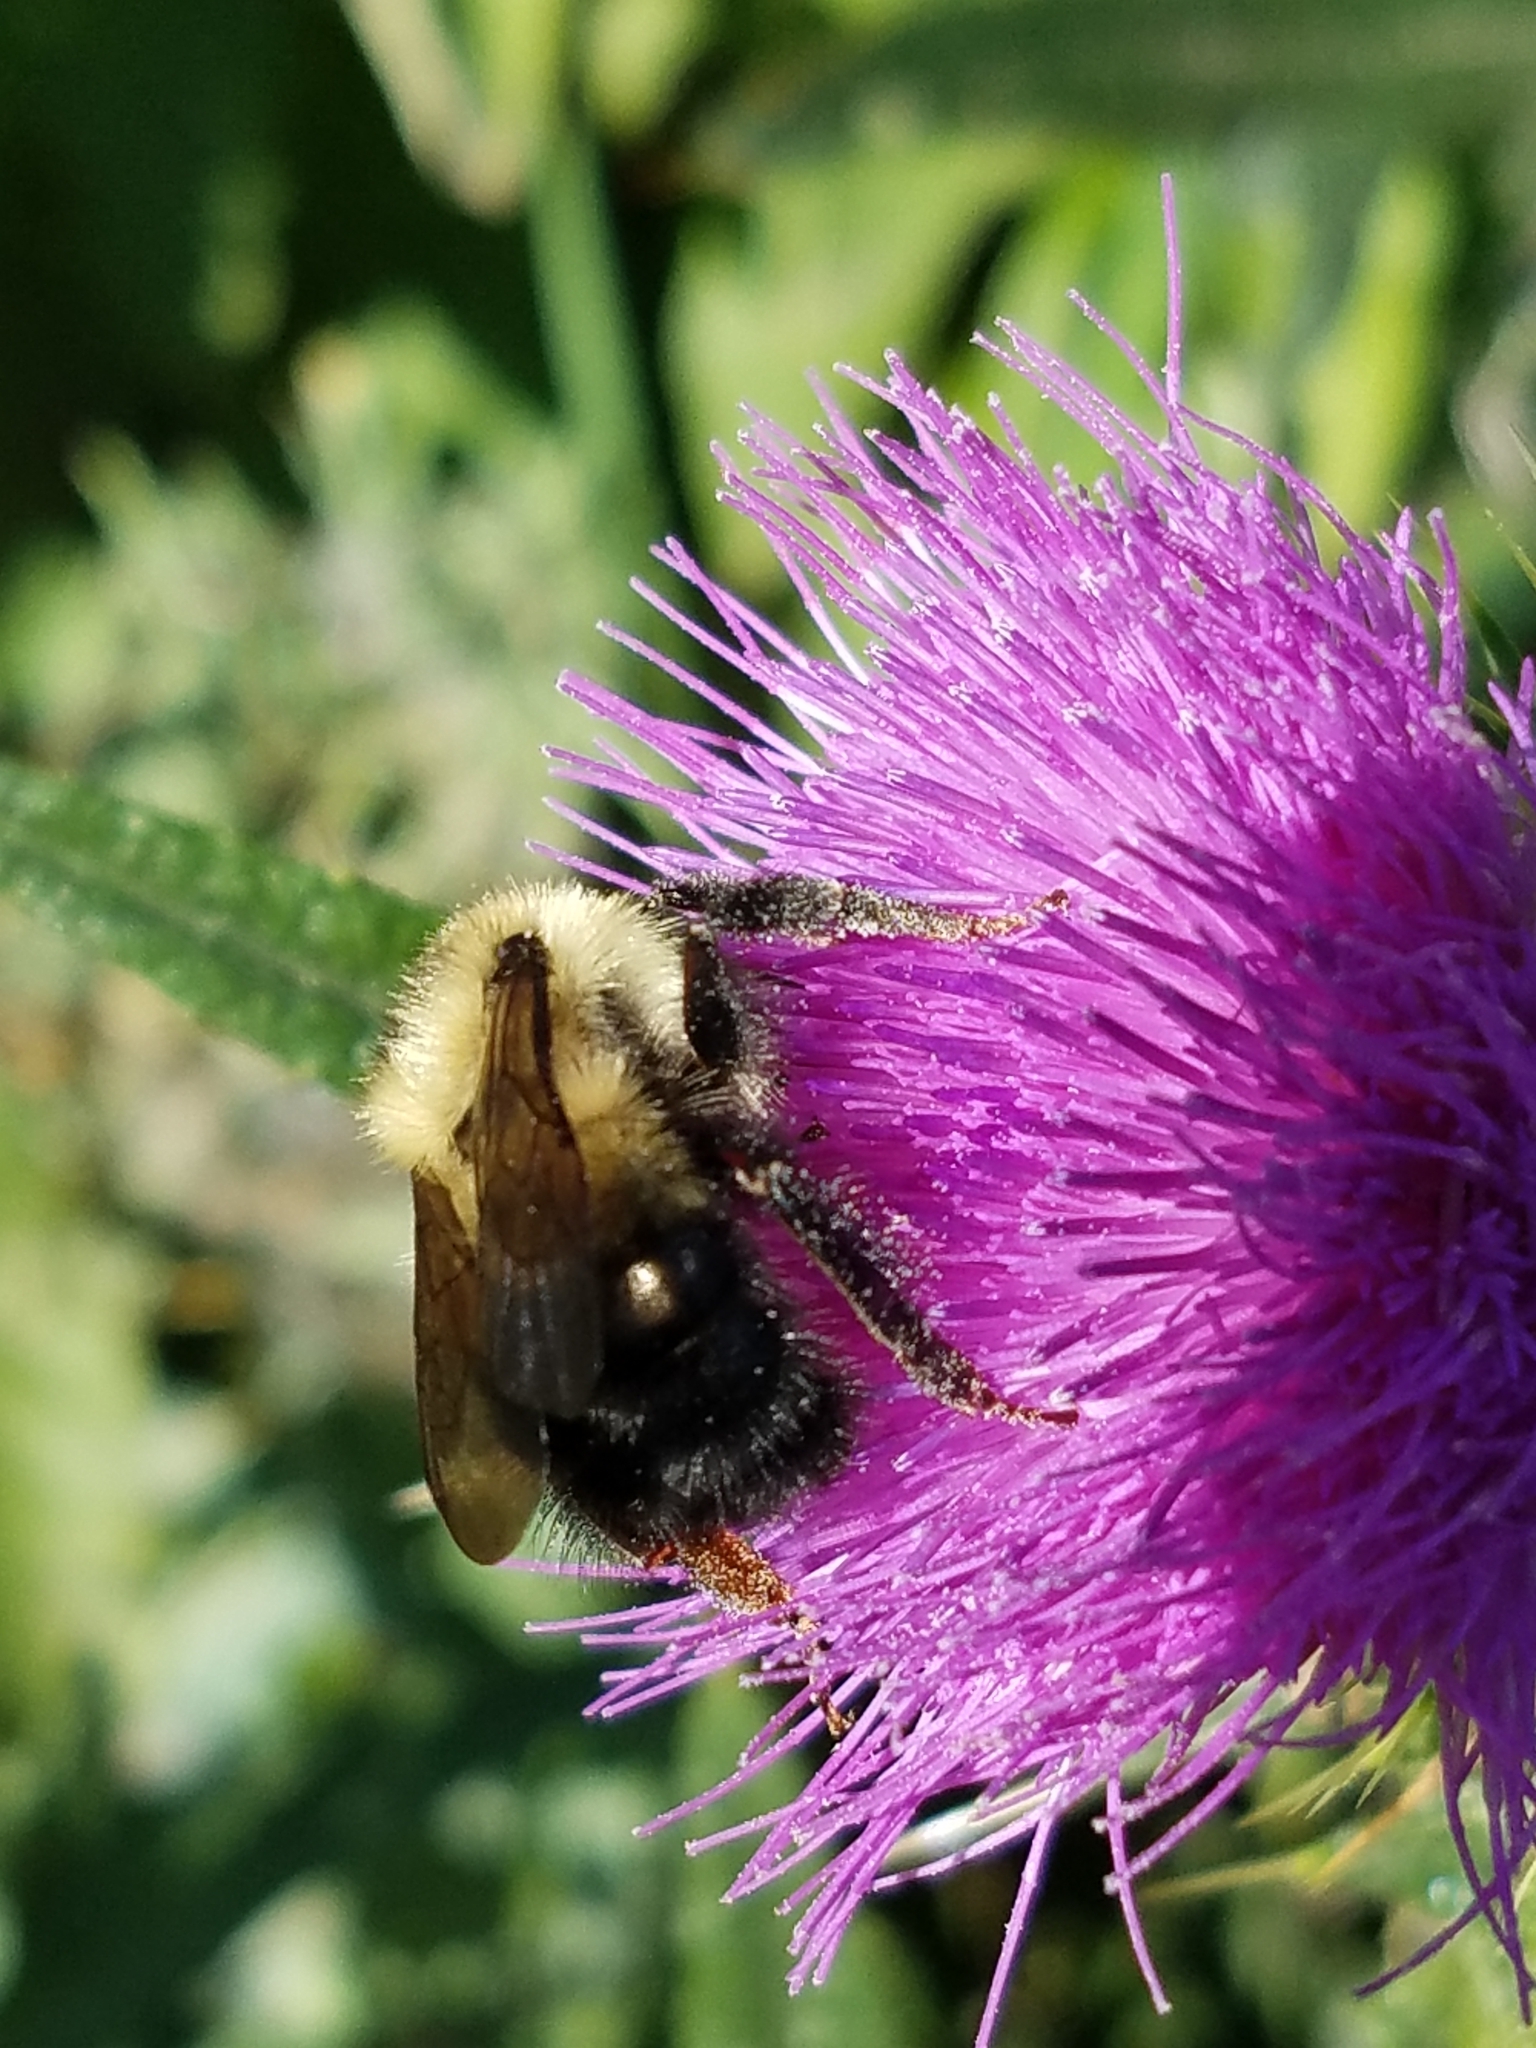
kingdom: Animalia
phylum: Arthropoda
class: Insecta
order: Hymenoptera
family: Apidae
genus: Bombus
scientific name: Bombus vagans
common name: Half-black bumble bee
